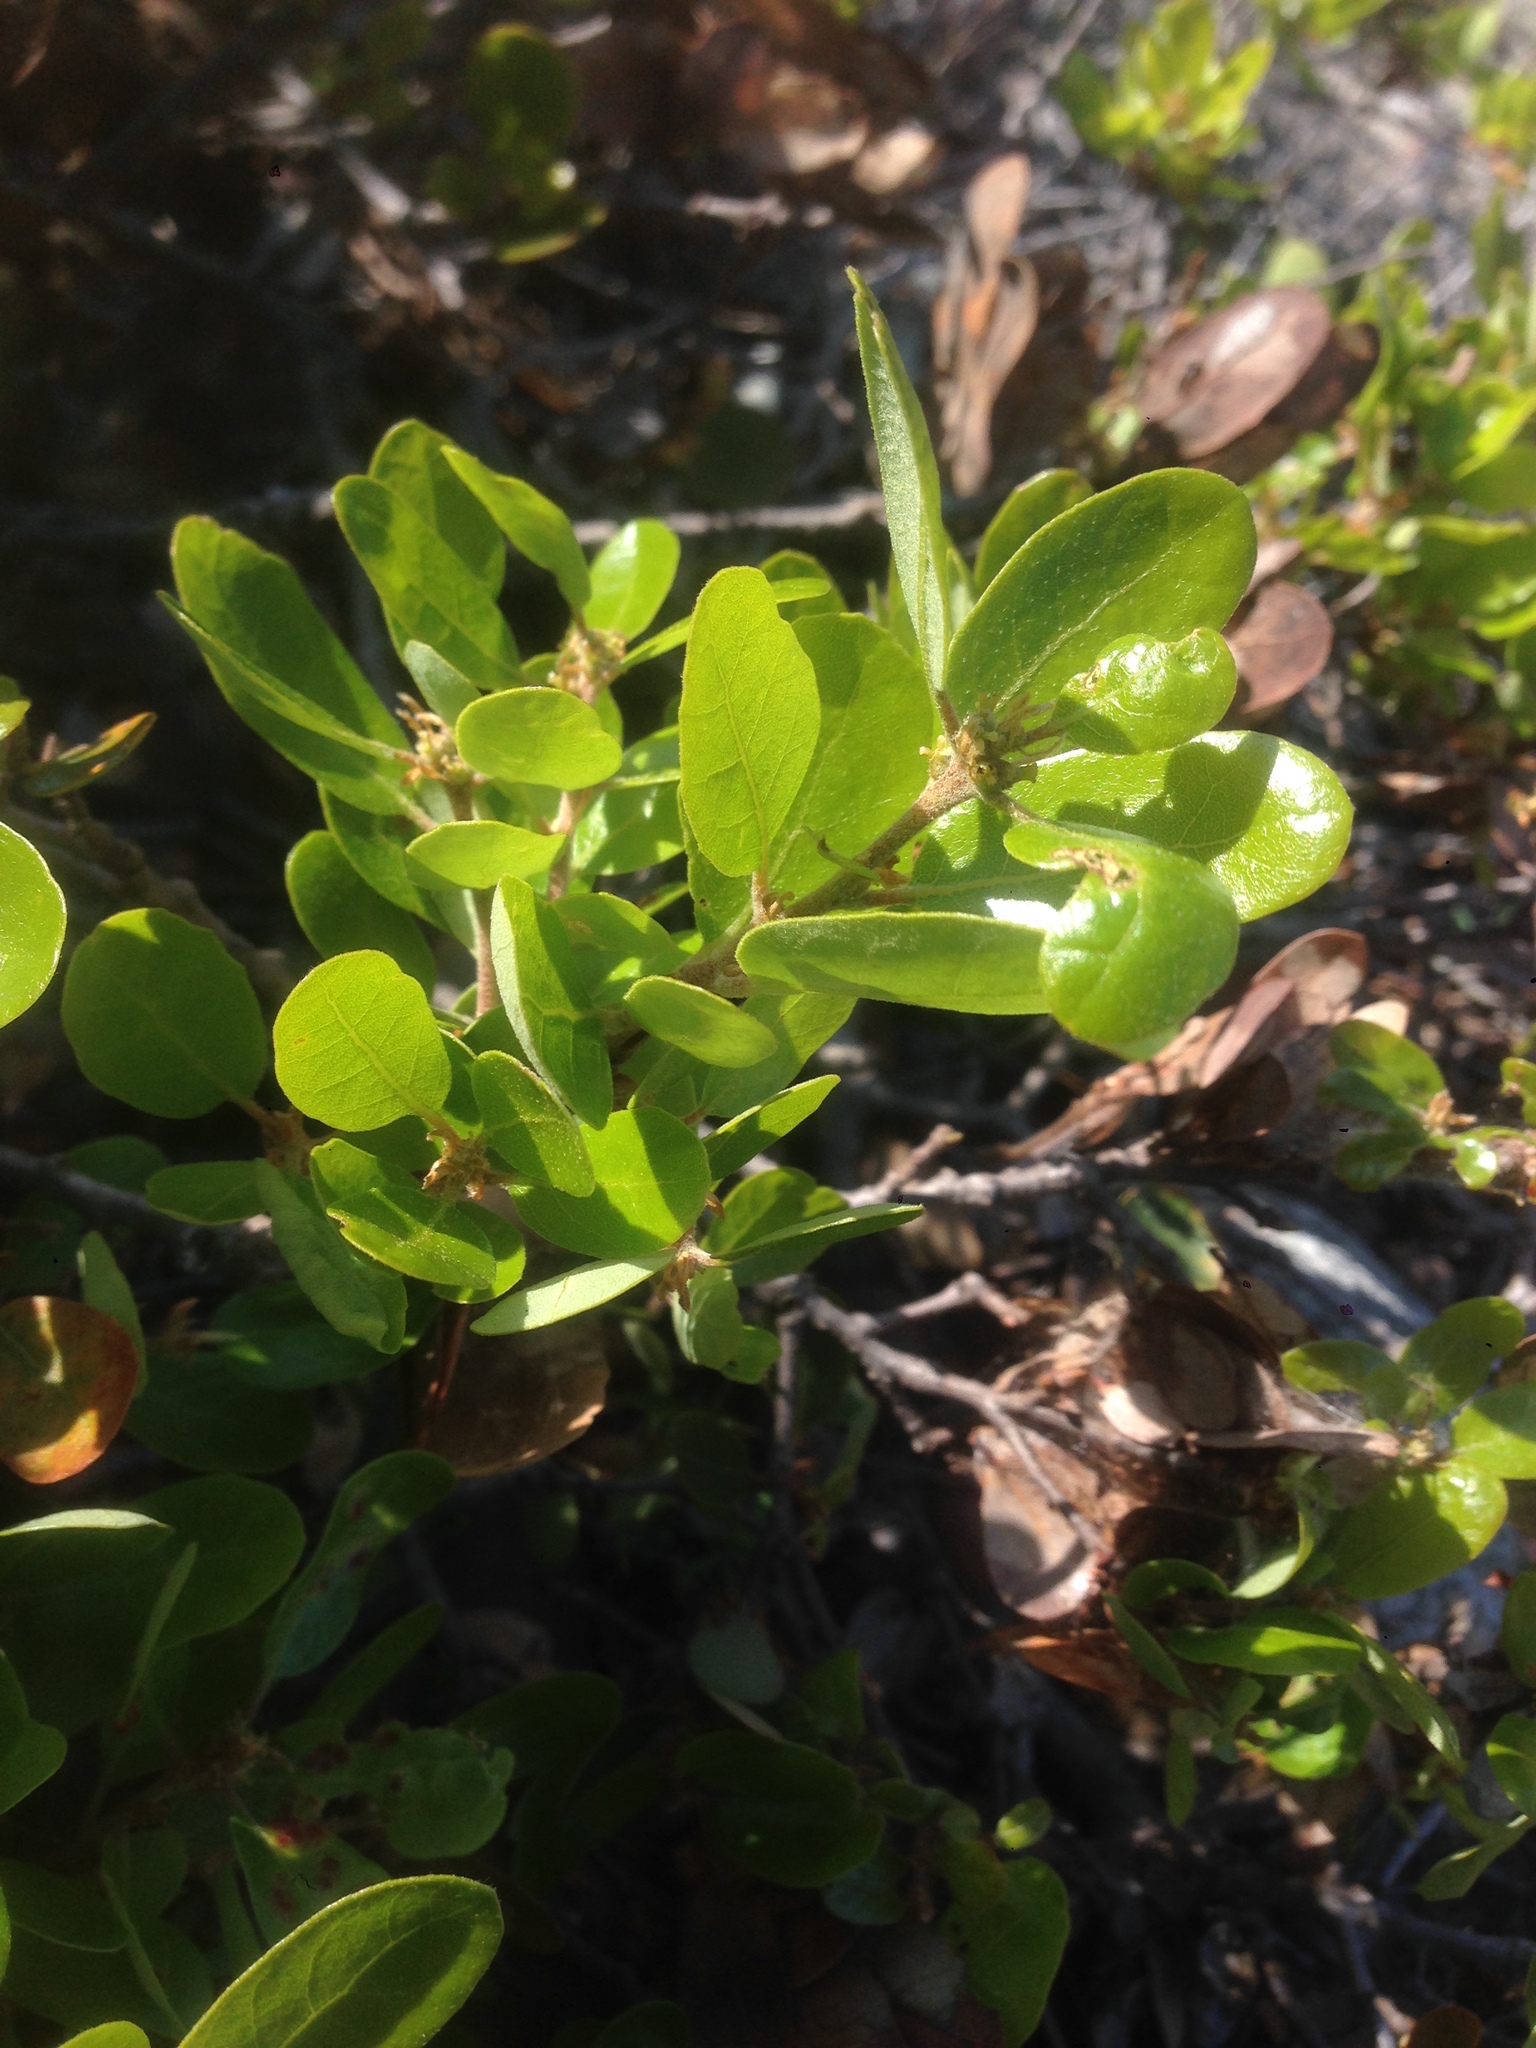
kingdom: Plantae
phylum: Tracheophyta
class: Magnoliopsida
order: Fagales
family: Fagaceae
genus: Quercus
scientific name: Quercus pacifica
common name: Channel island scrub oak
